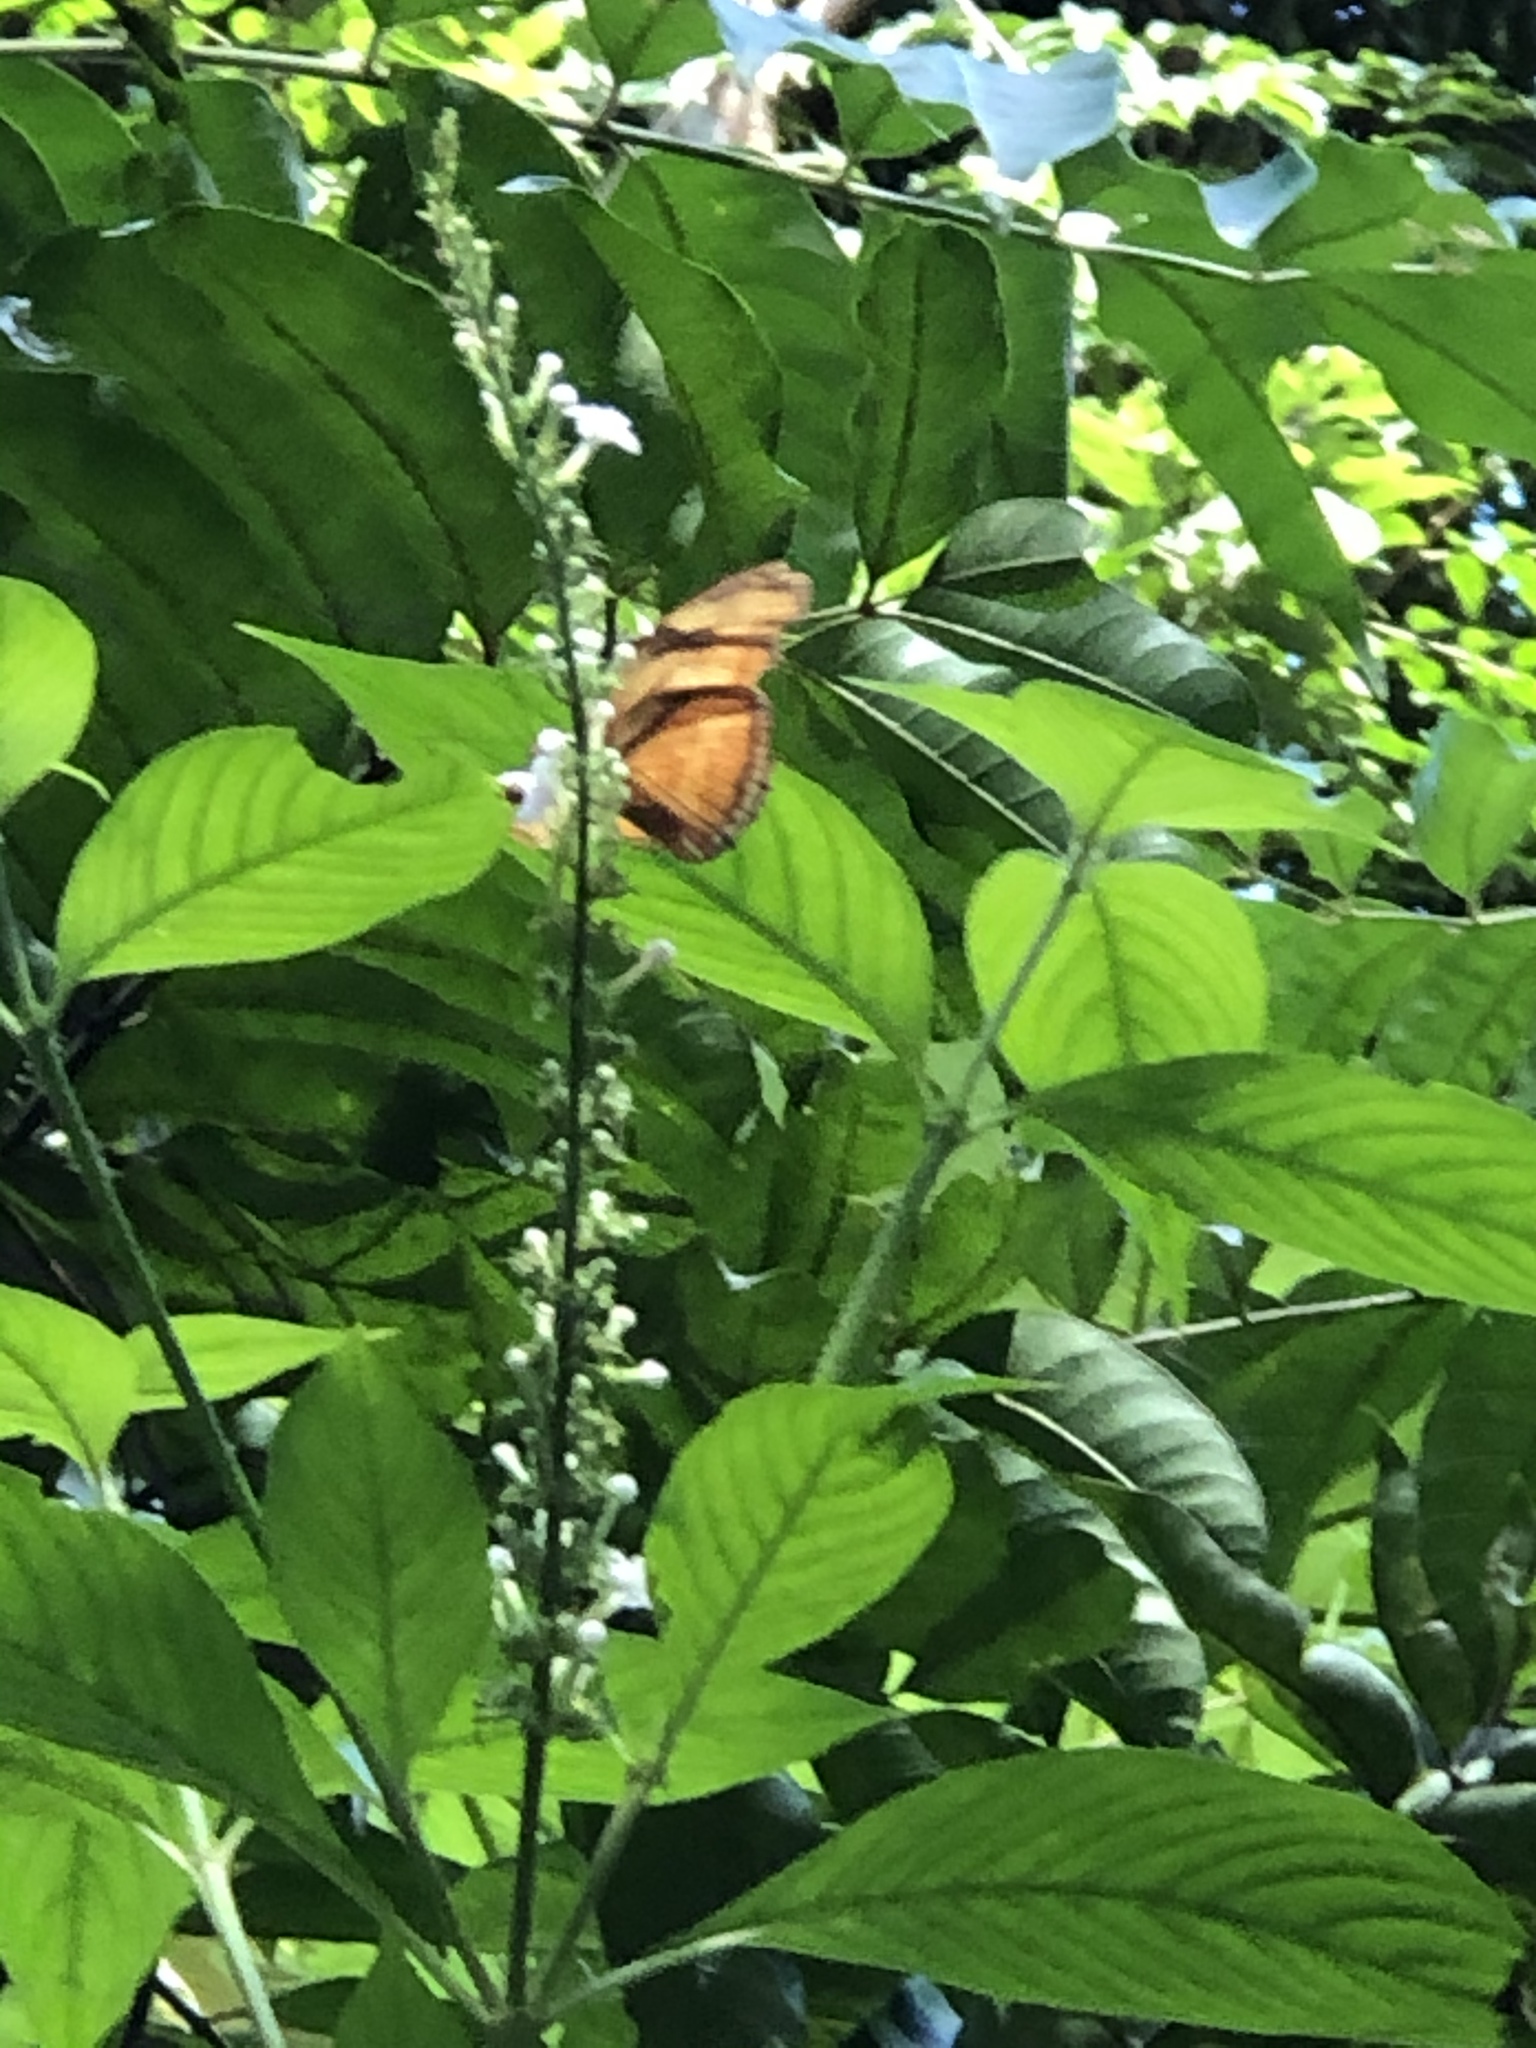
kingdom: Animalia
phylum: Arthropoda
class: Insecta
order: Lepidoptera
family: Nymphalidae
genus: Dryas
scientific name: Dryas iulia
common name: Flambeau
